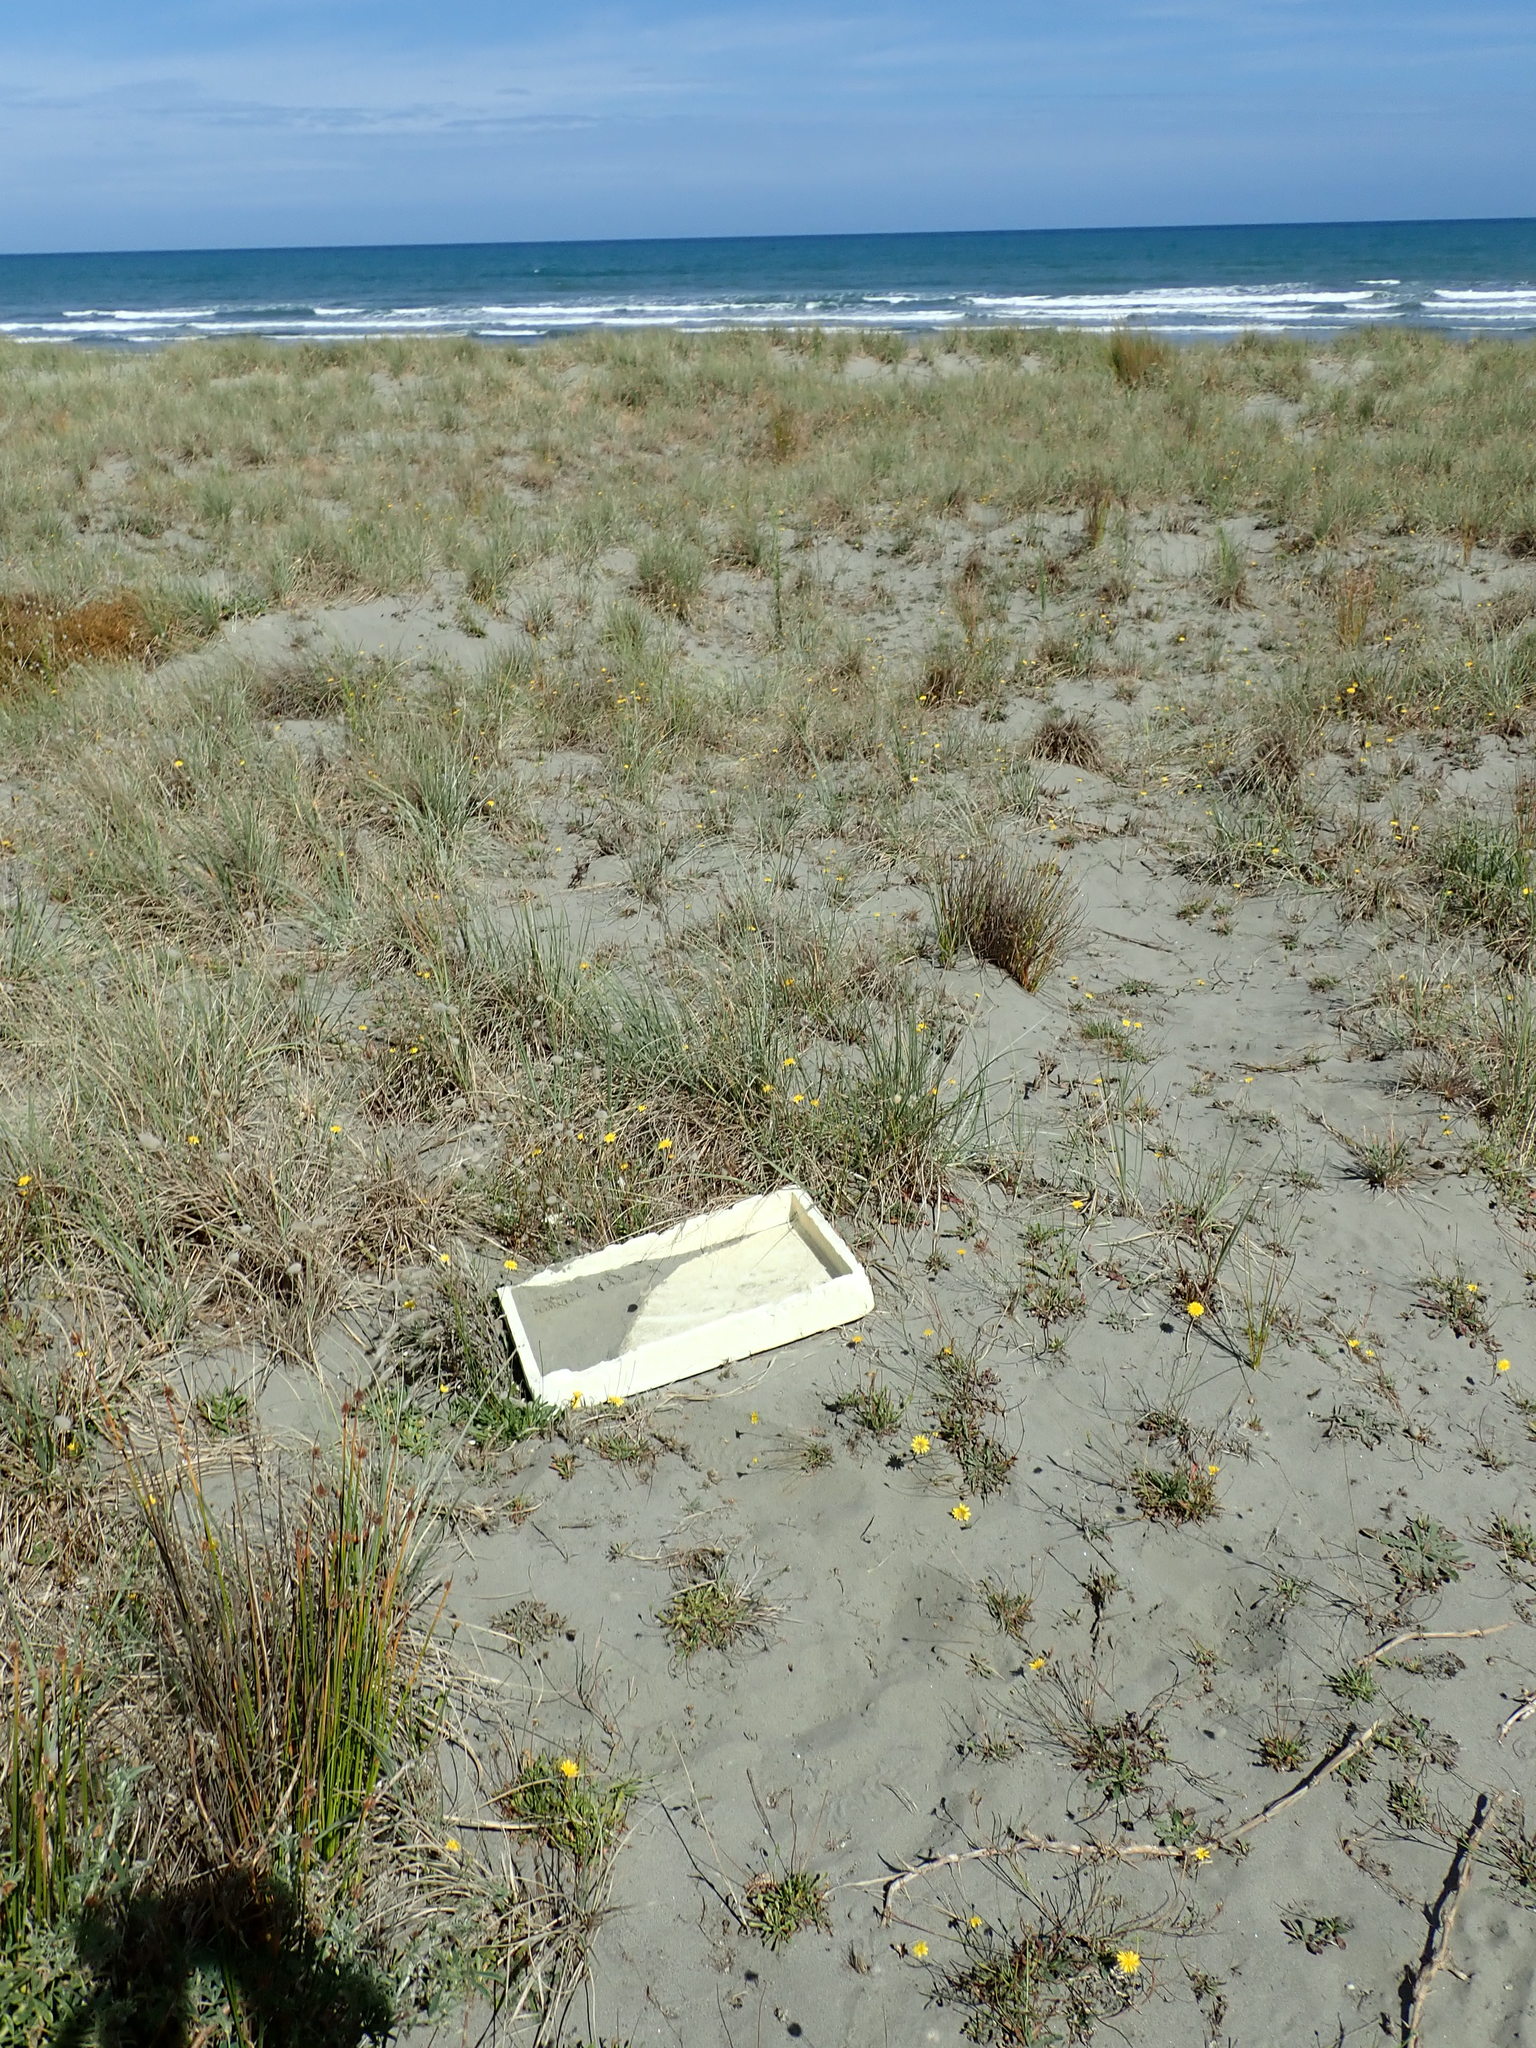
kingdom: Animalia
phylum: Arthropoda
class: Arachnida
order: Araneae
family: Theridiidae
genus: Steatoda
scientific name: Steatoda capensis
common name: Cobweb weaver
